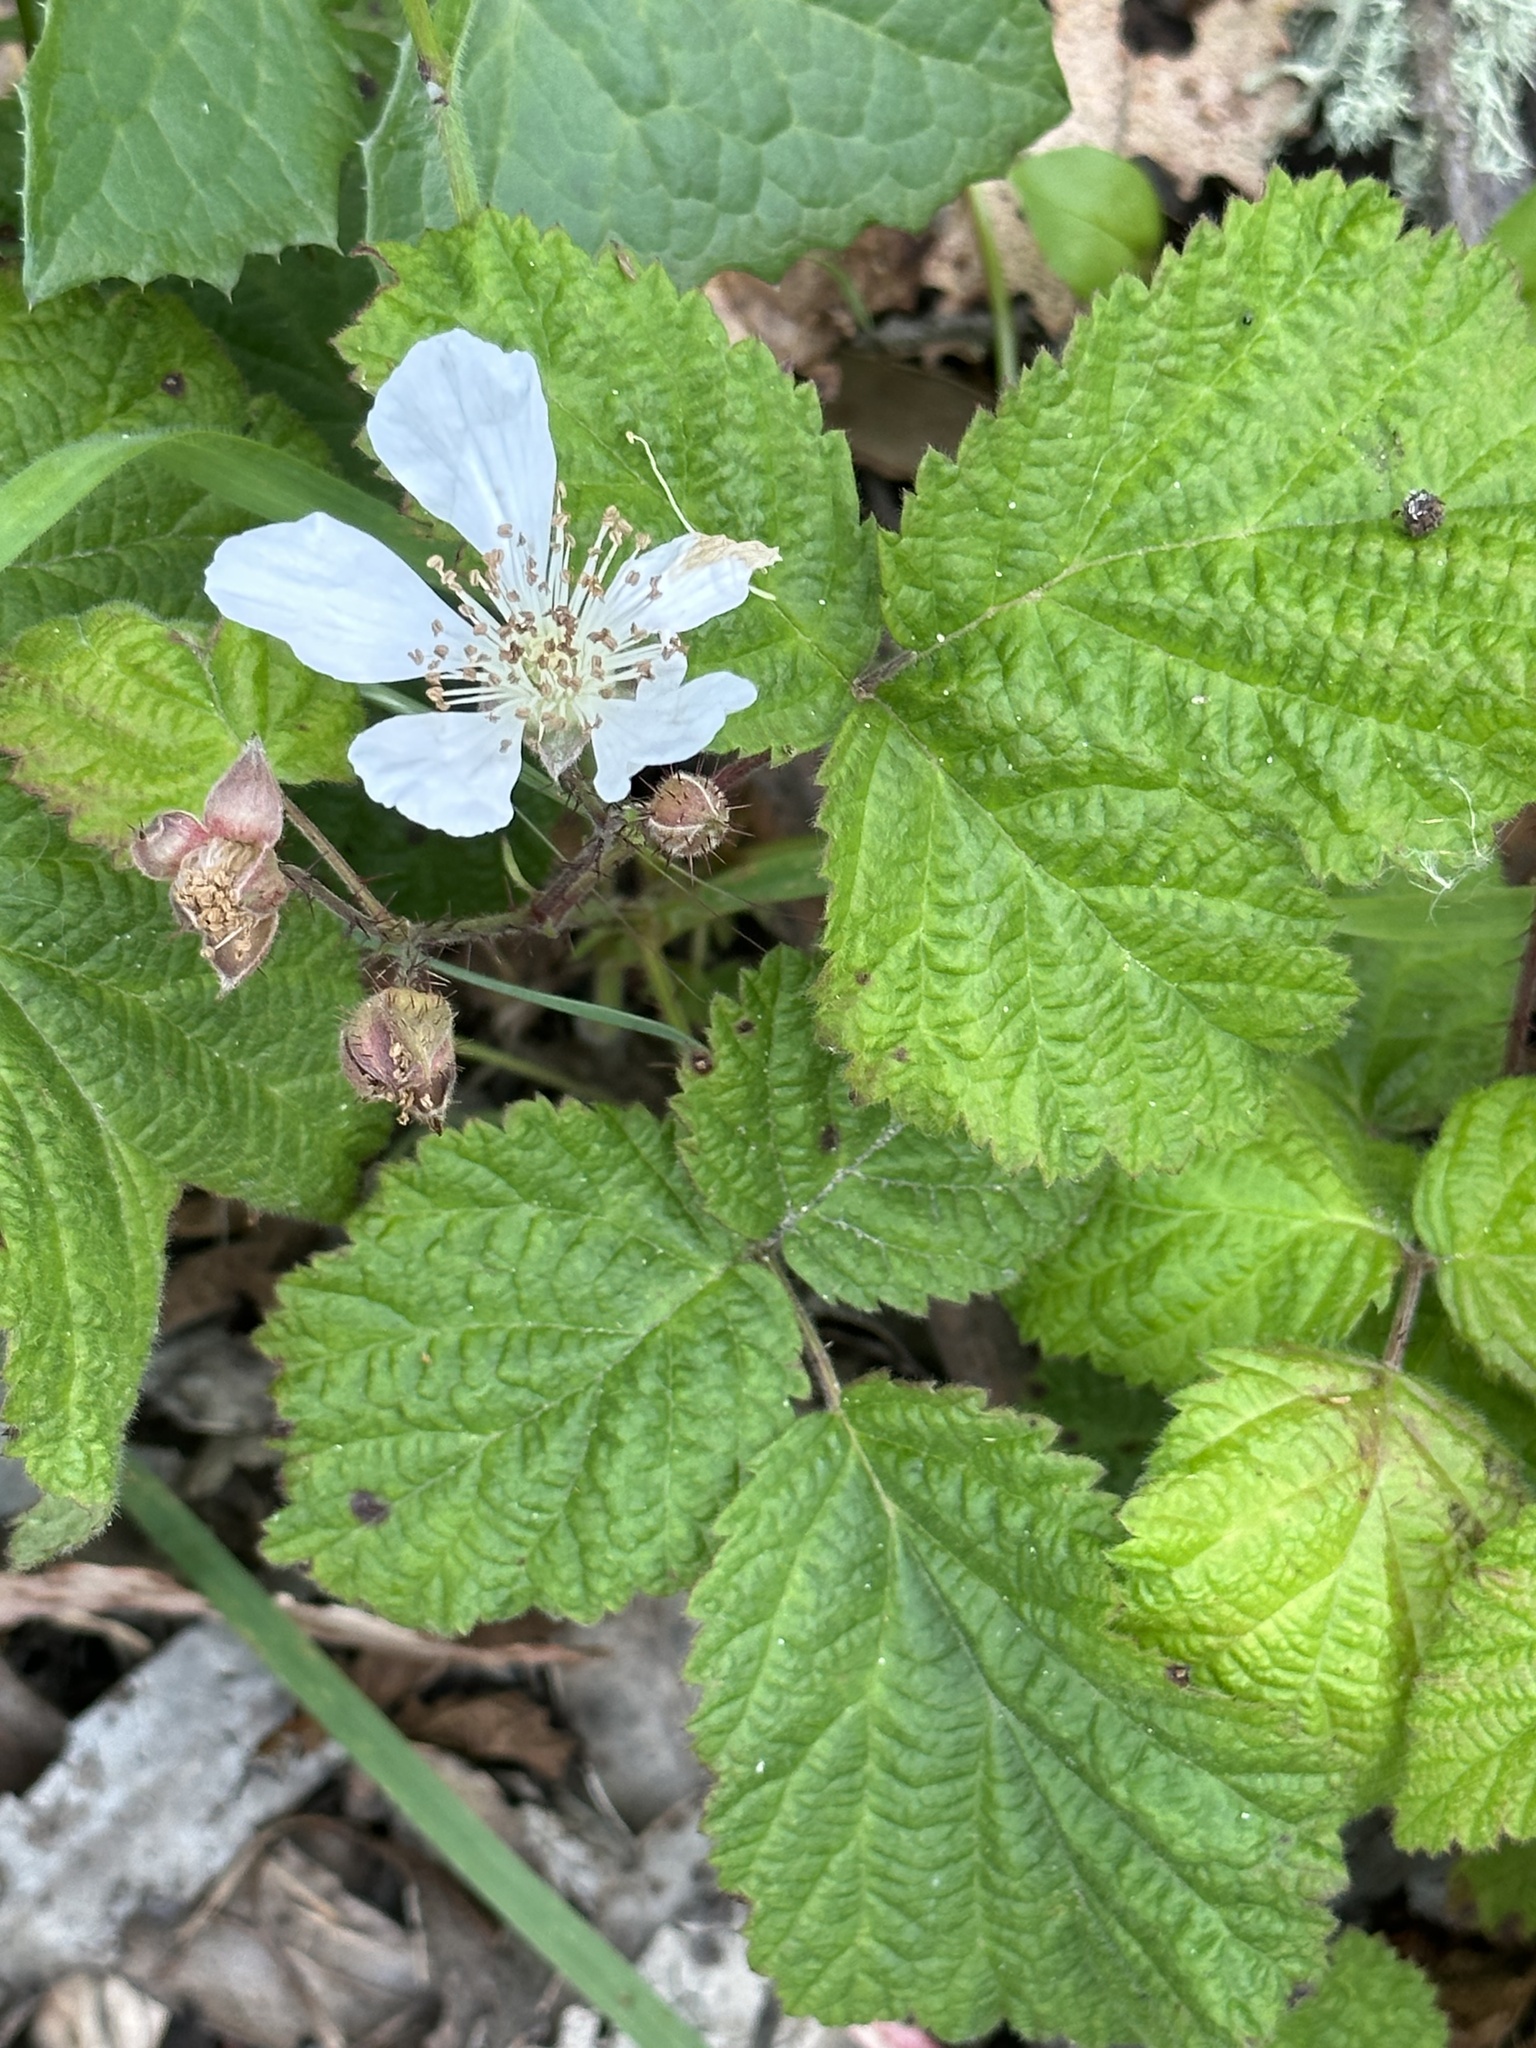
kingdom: Plantae
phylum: Tracheophyta
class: Magnoliopsida
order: Rosales
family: Rosaceae
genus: Rubus
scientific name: Rubus ursinus
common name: Pacific blackberry
